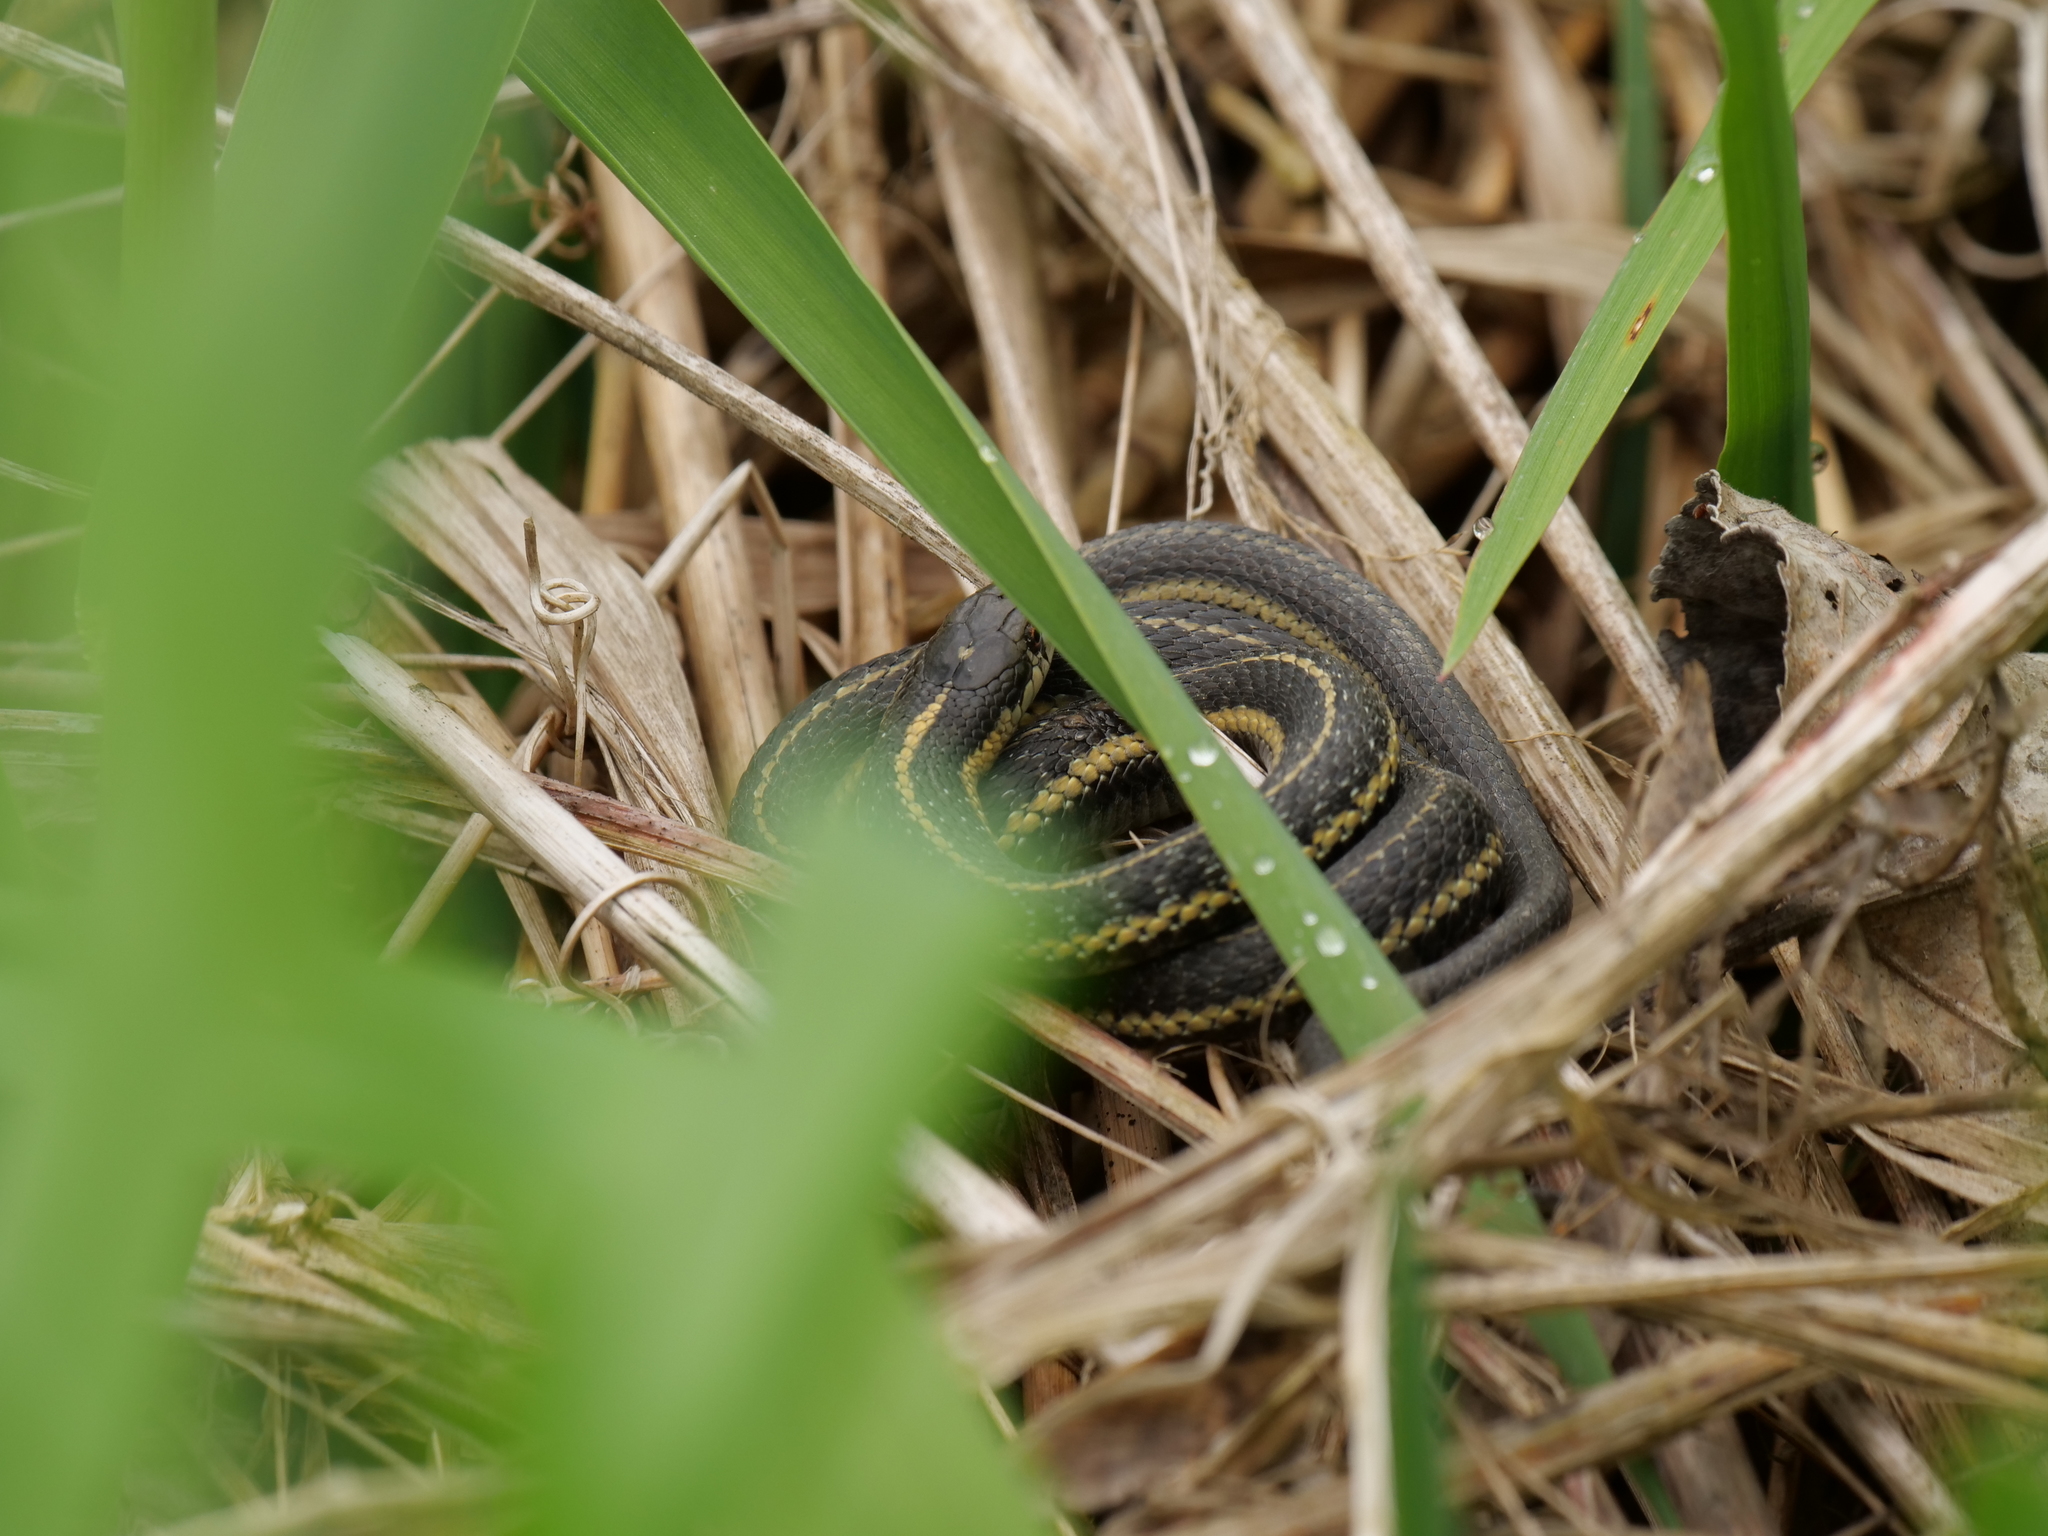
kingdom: Animalia
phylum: Chordata
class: Squamata
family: Colubridae
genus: Thamnophis
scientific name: Thamnophis ordinoides
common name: Northwestern garter snake
